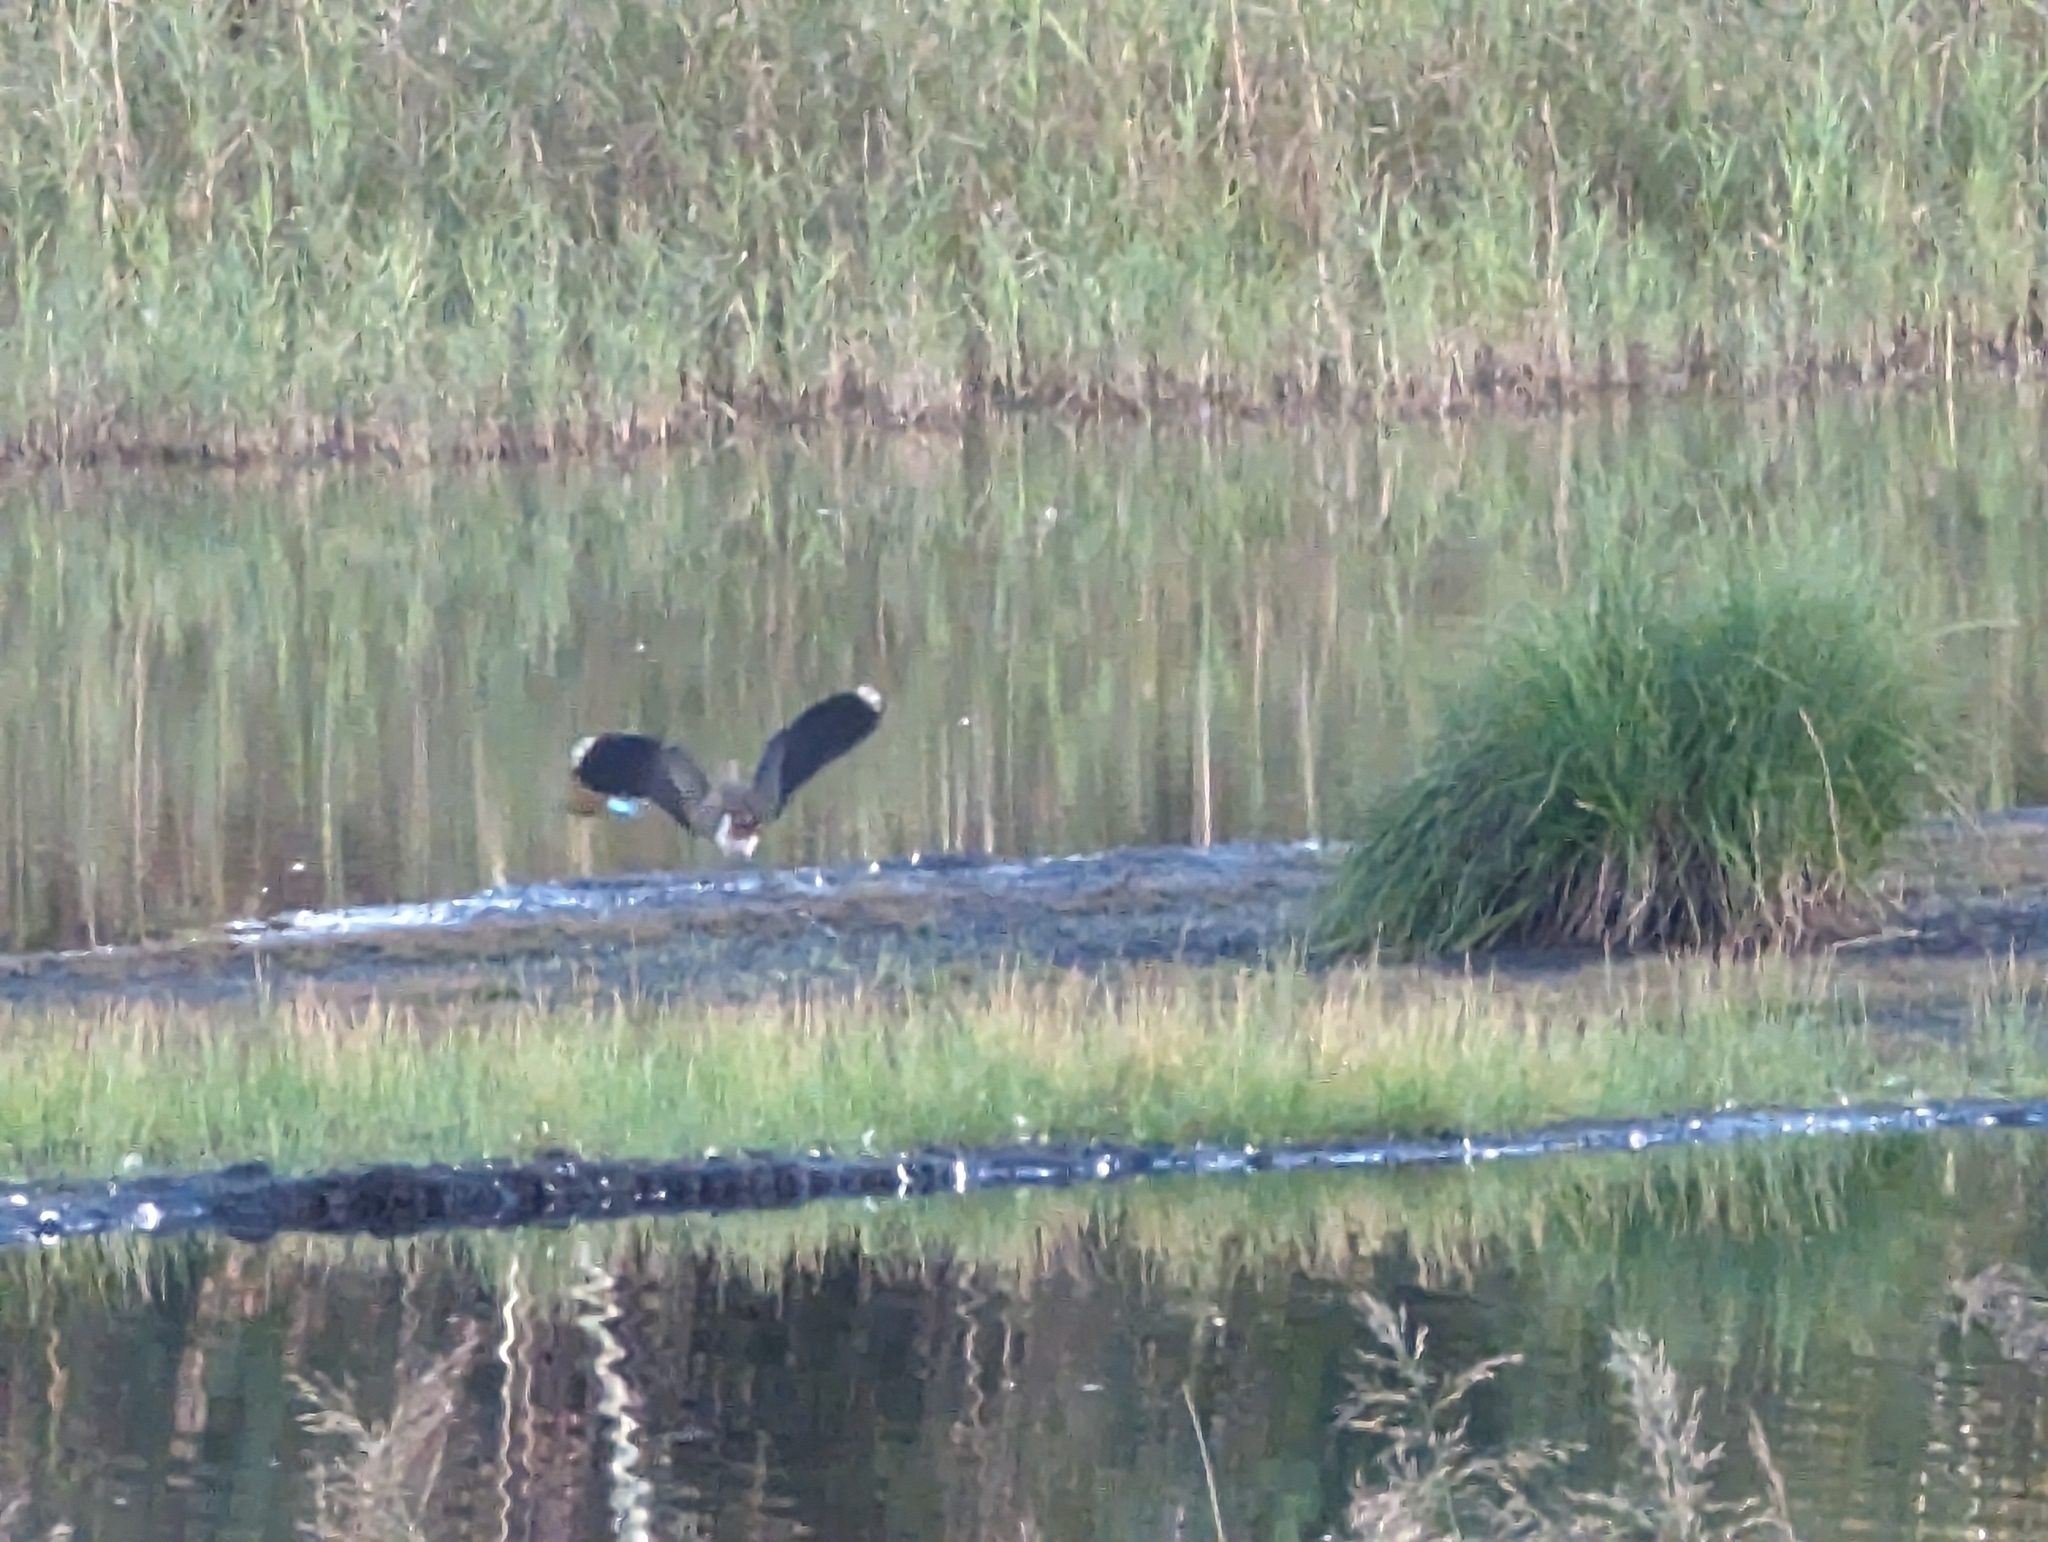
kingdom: Animalia
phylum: Chordata
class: Aves
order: Charadriiformes
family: Charadriidae
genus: Vanellus
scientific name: Vanellus vanellus
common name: Northern lapwing
